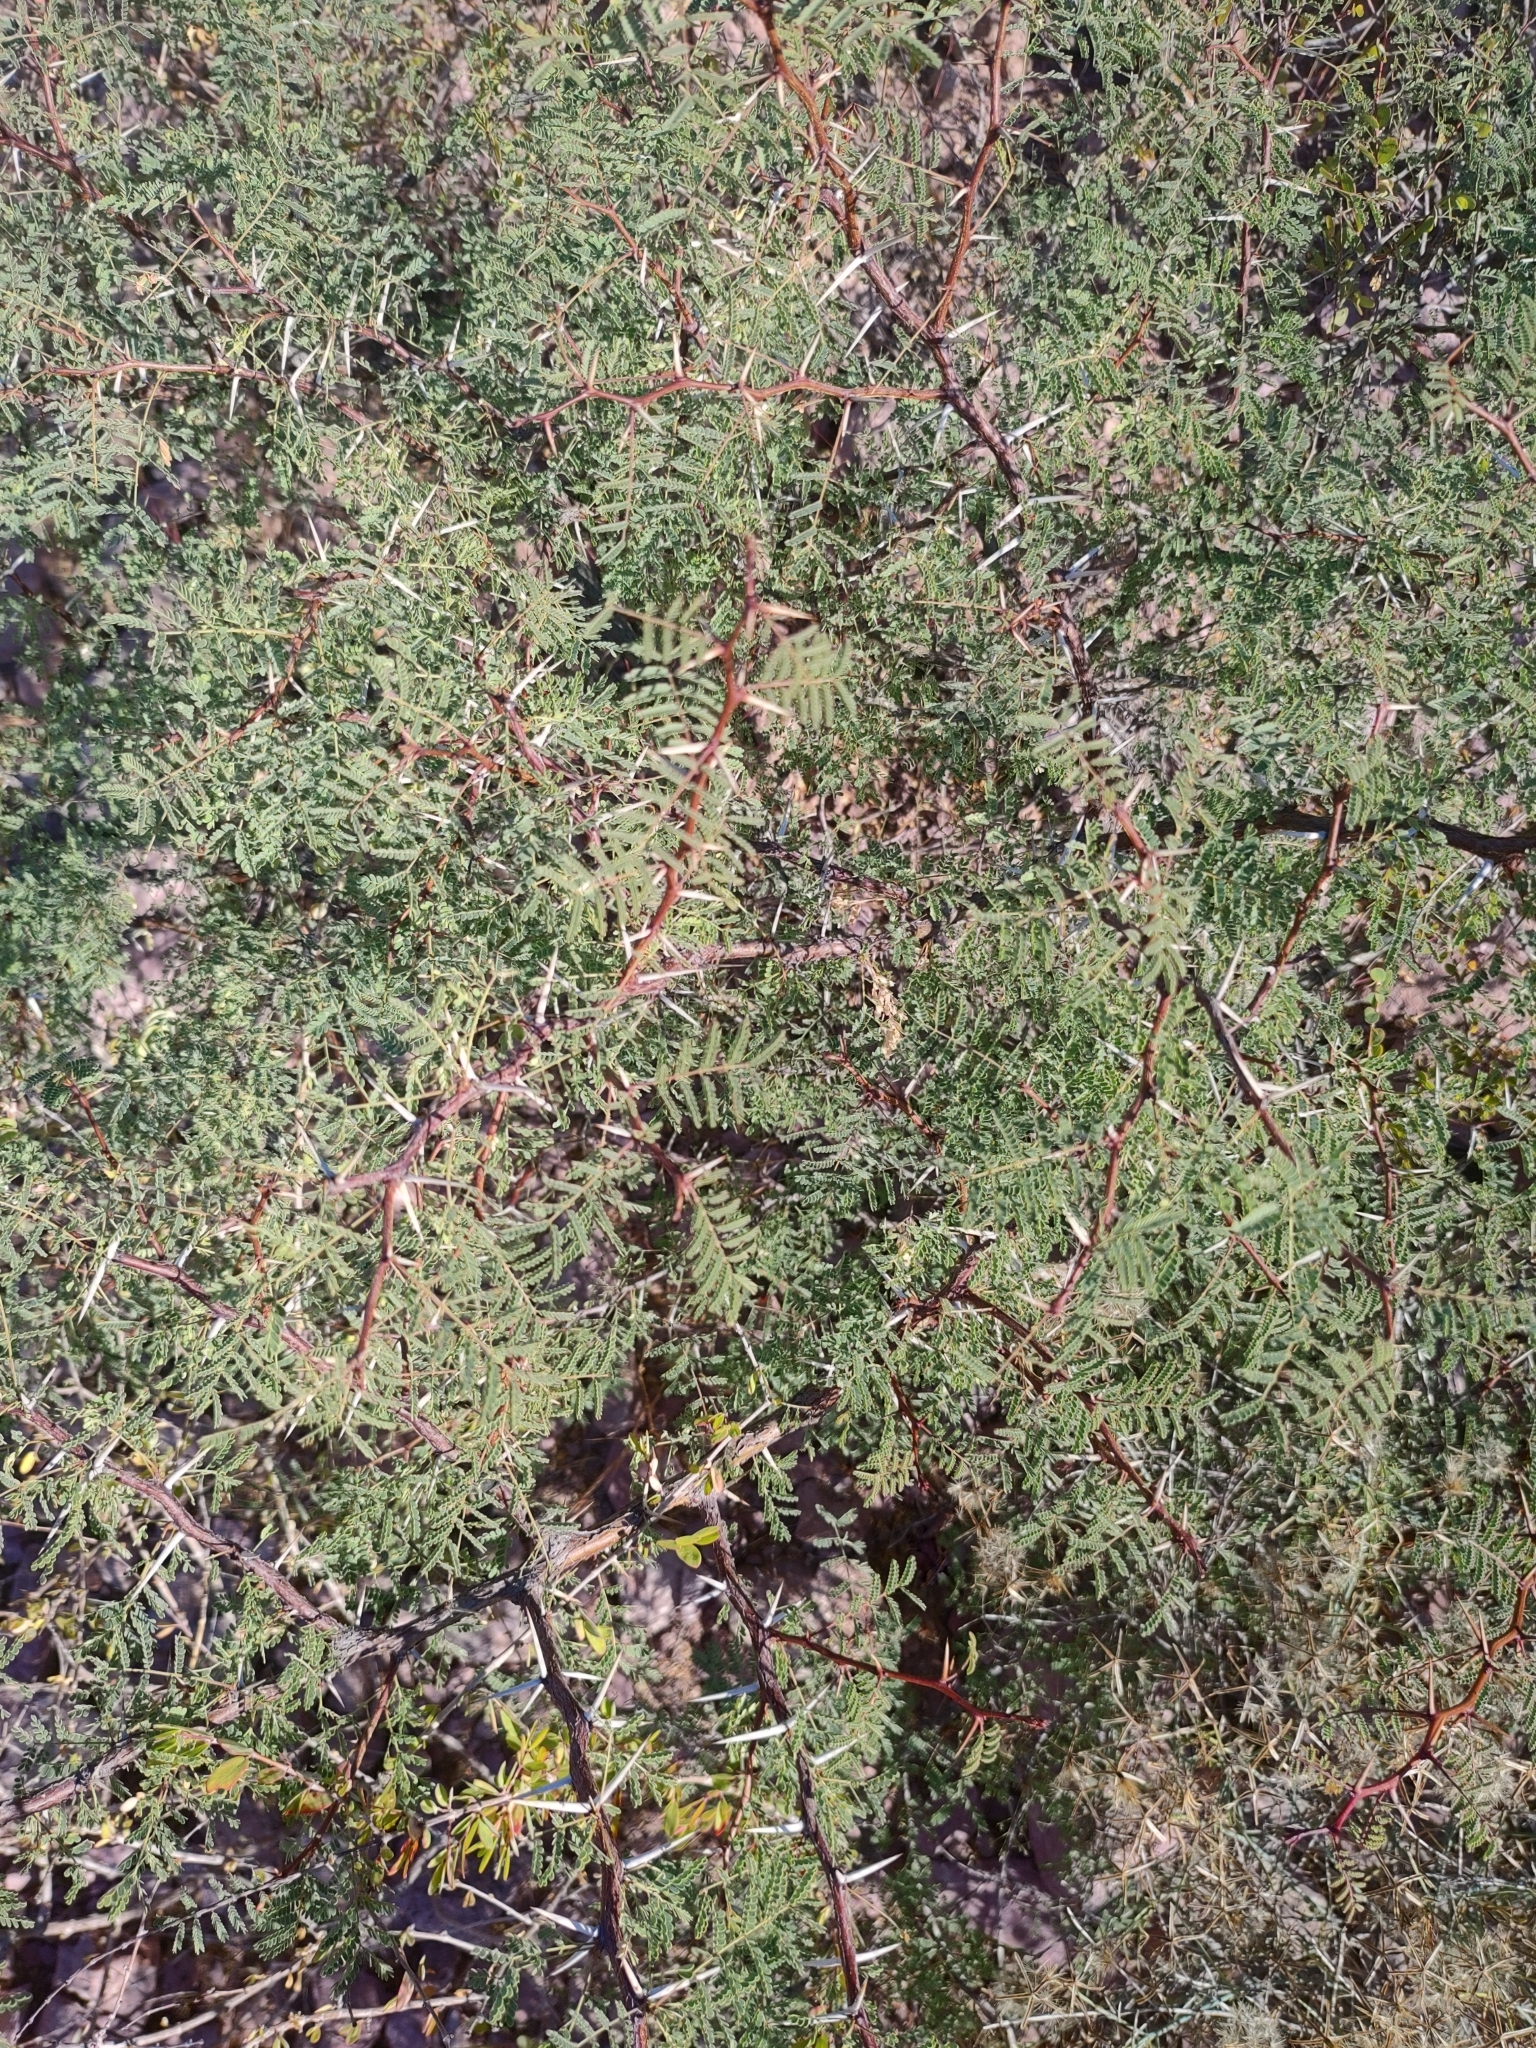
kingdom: Plantae
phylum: Tracheophyta
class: Magnoliopsida
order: Fabales
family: Fabaceae
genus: Vachellia
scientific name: Vachellia pacensis
